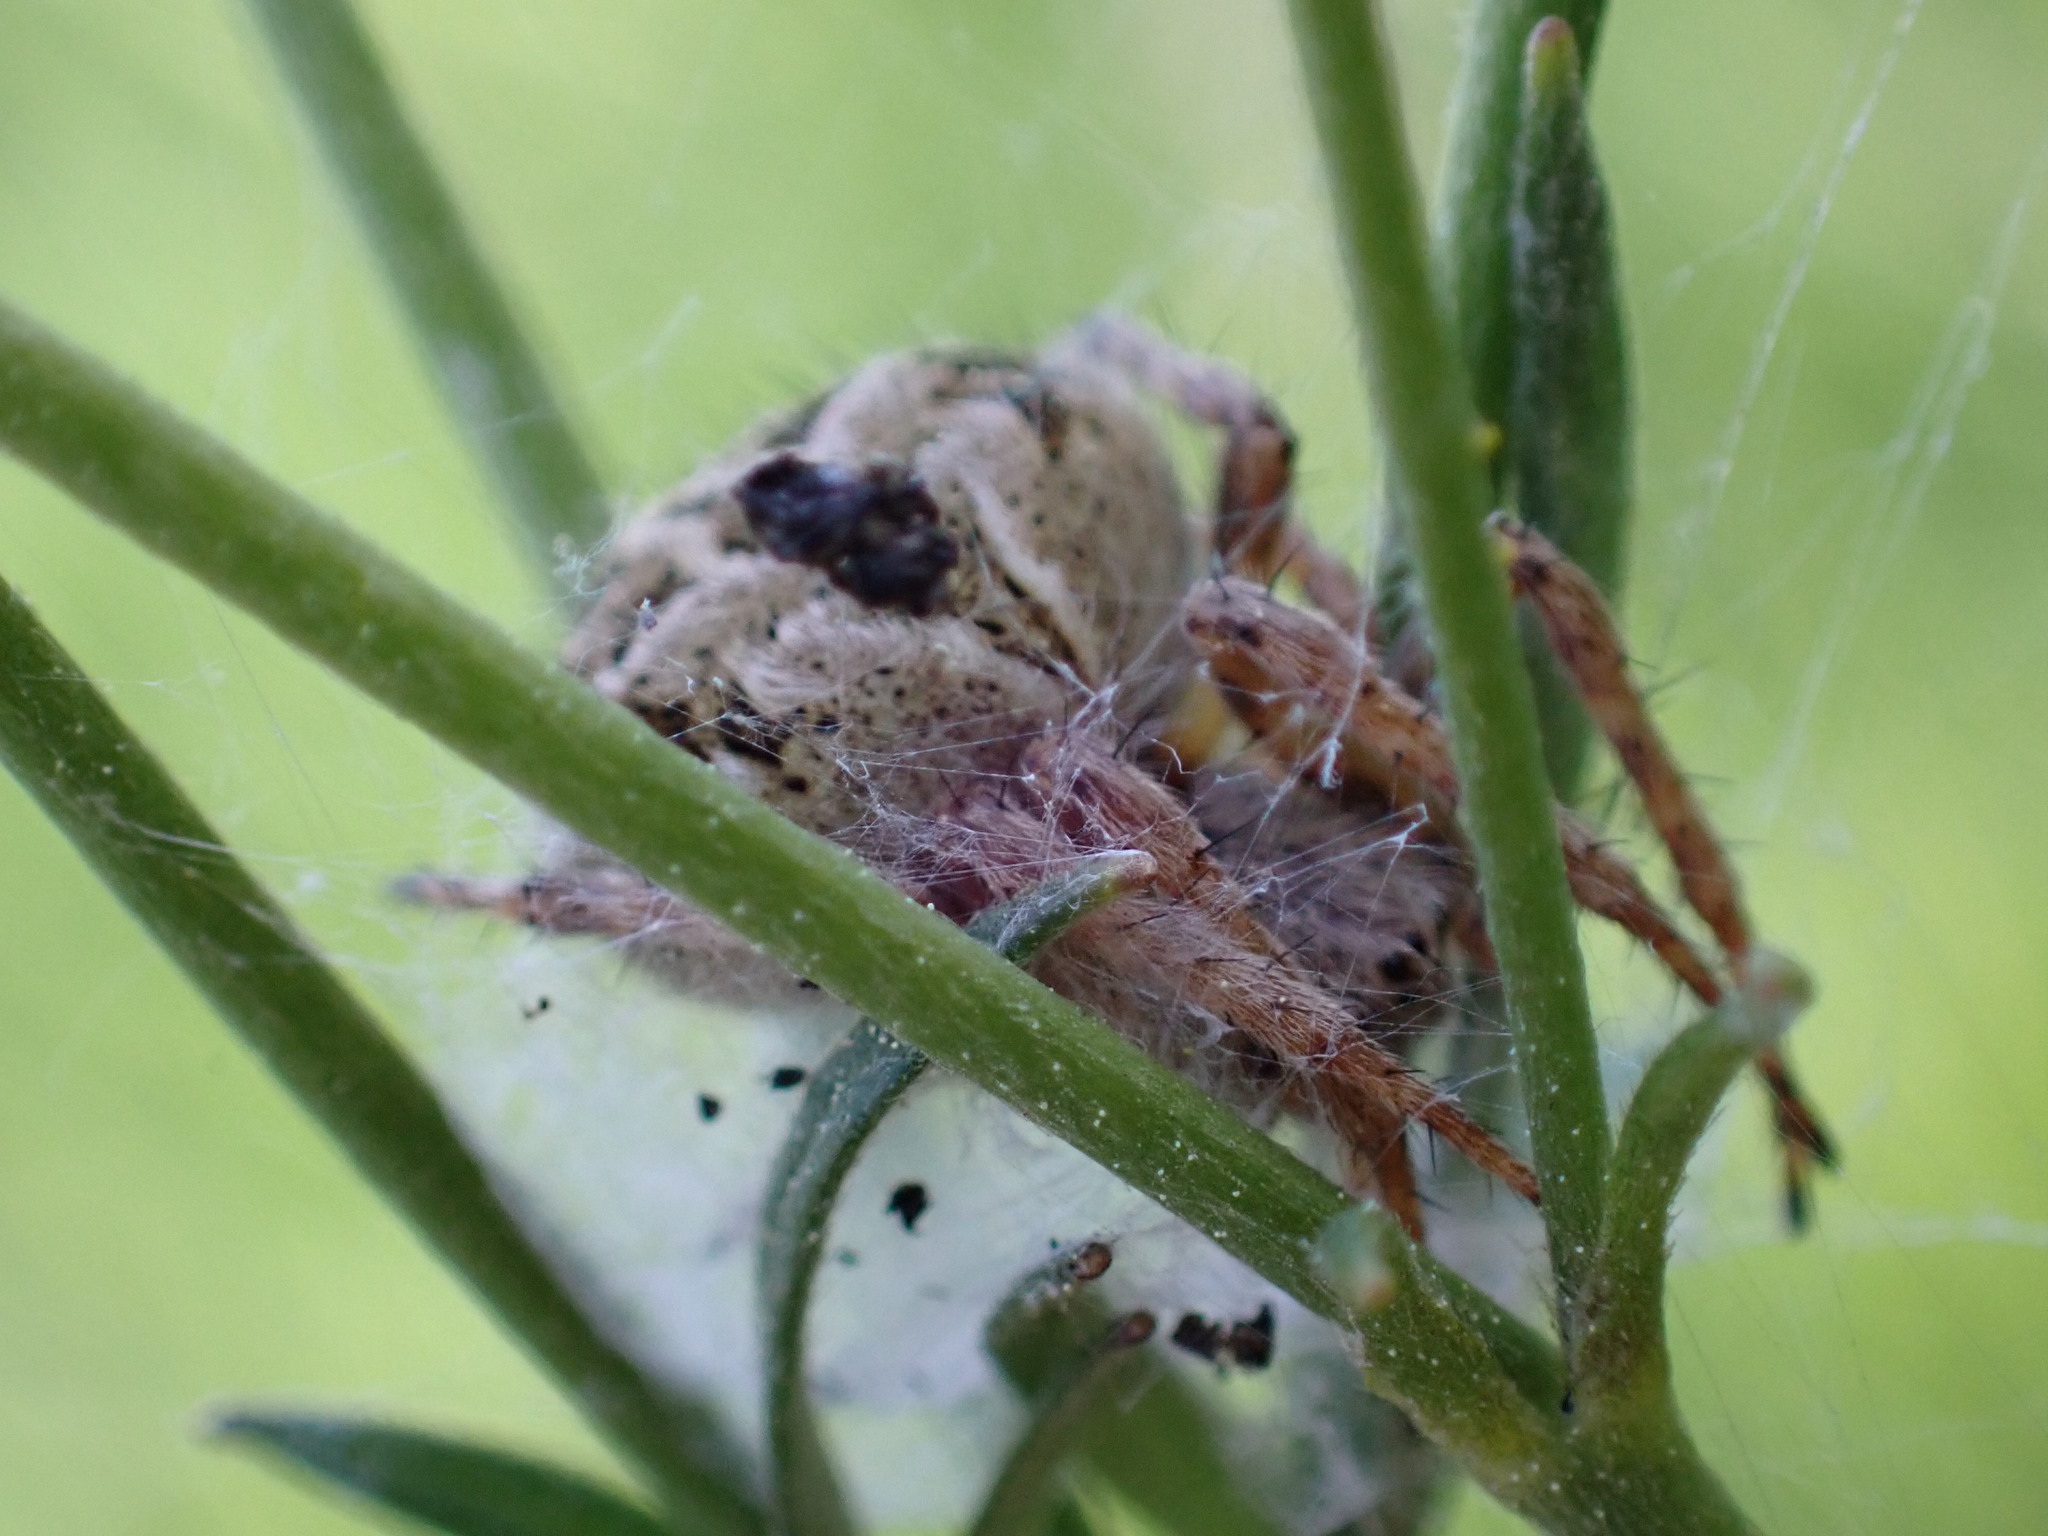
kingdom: Animalia
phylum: Arthropoda
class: Arachnida
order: Araneae
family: Araneidae
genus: Agalenatea
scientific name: Agalenatea redii
